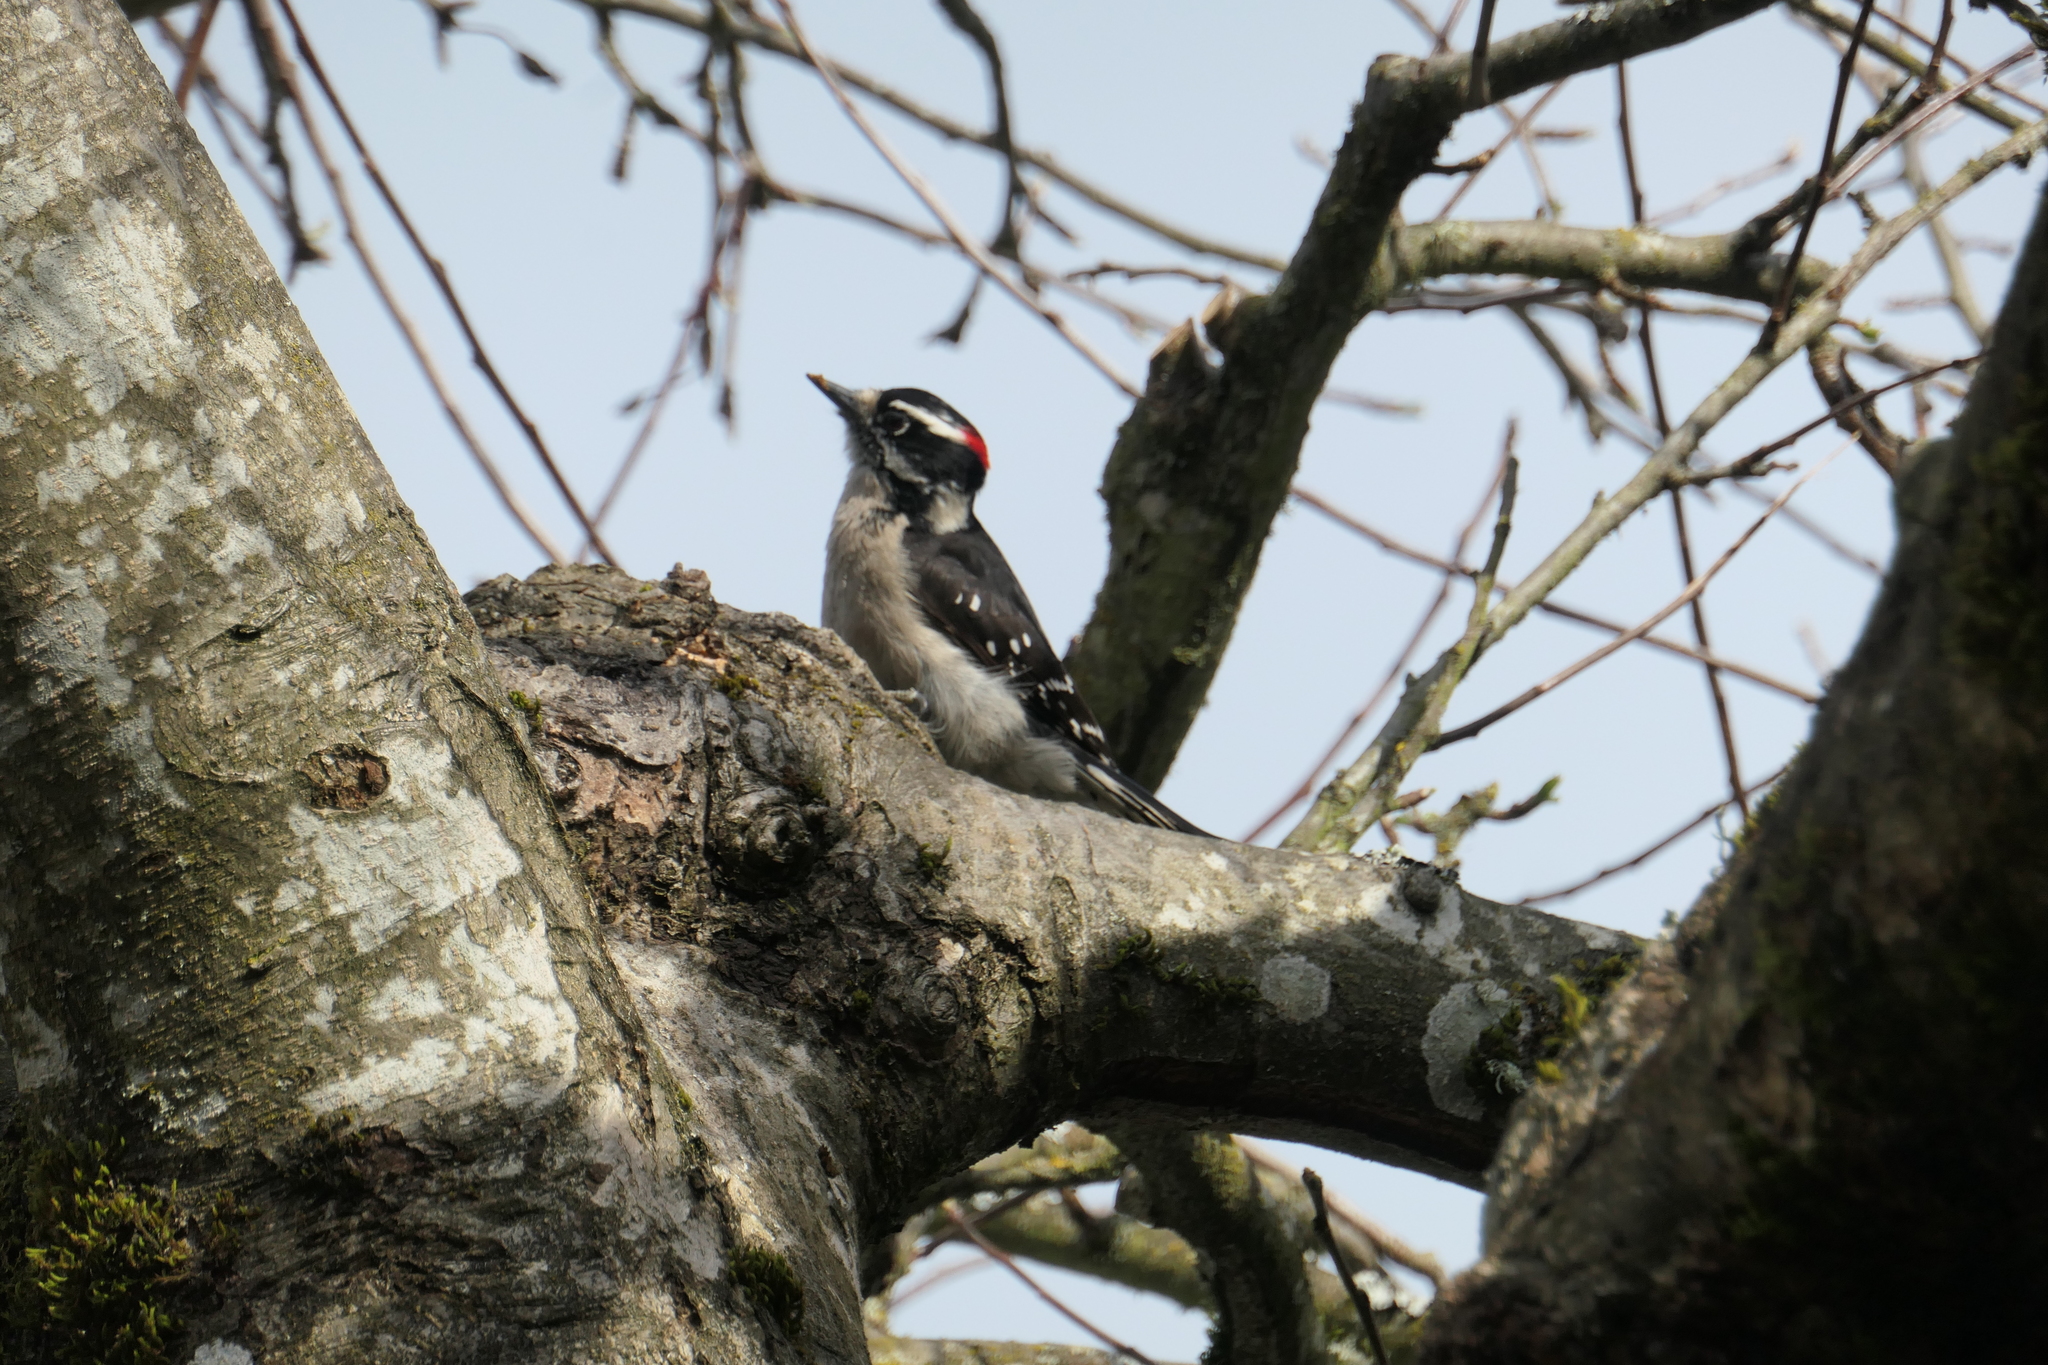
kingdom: Animalia
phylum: Chordata
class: Aves
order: Piciformes
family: Picidae
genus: Dryobates
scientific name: Dryobates pubescens
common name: Downy woodpecker
